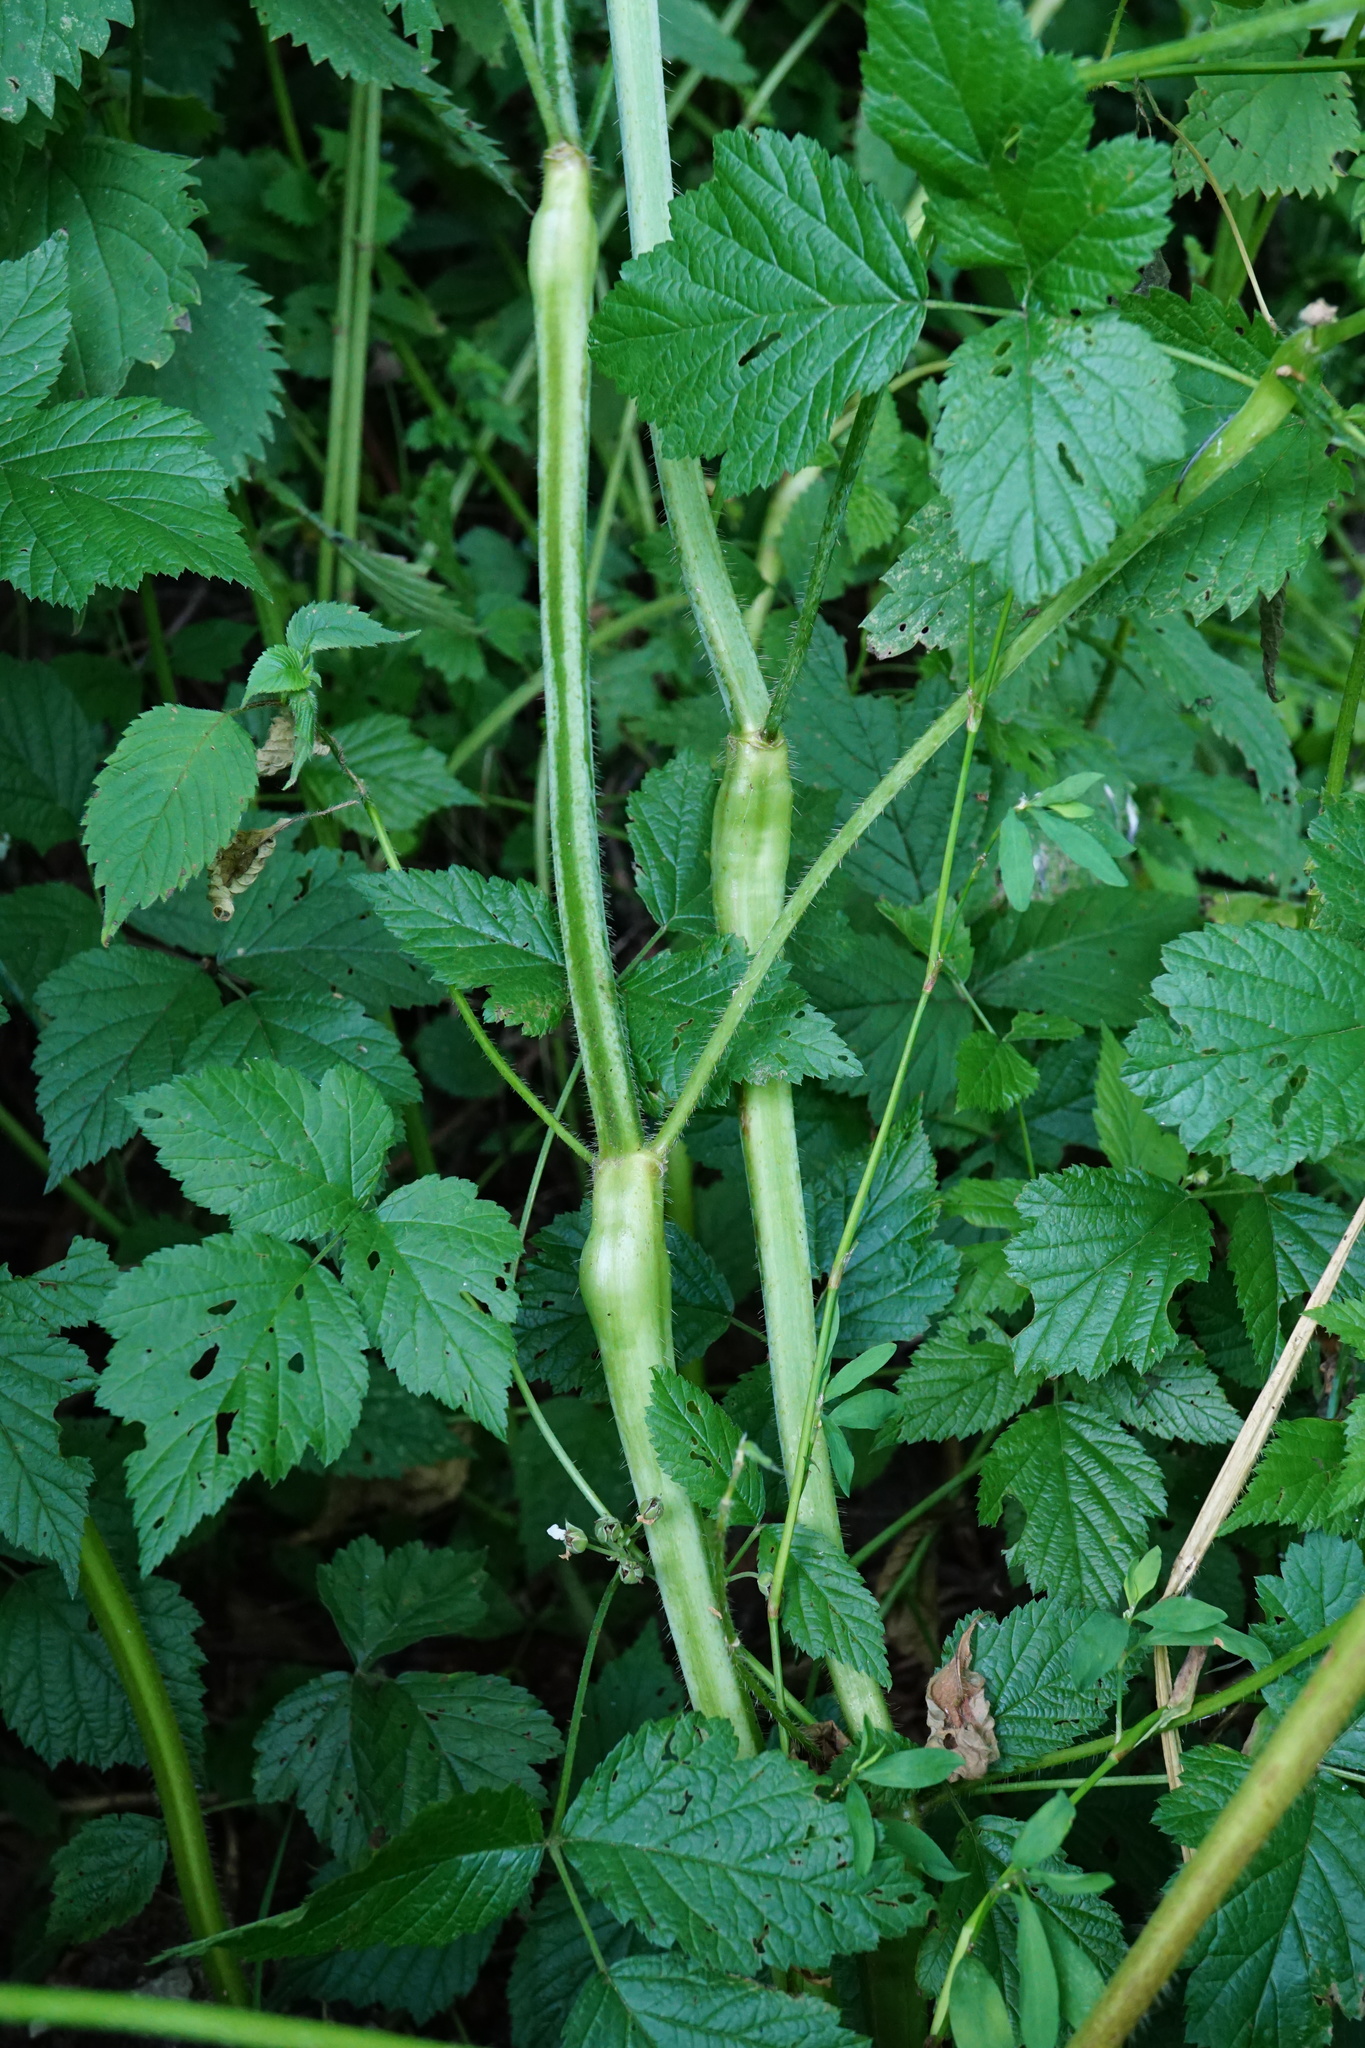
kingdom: Plantae
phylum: Tracheophyta
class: Magnoliopsida
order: Lamiales
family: Lamiaceae
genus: Galeopsis
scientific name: Galeopsis speciosa
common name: Large-flowered hemp-nettle
